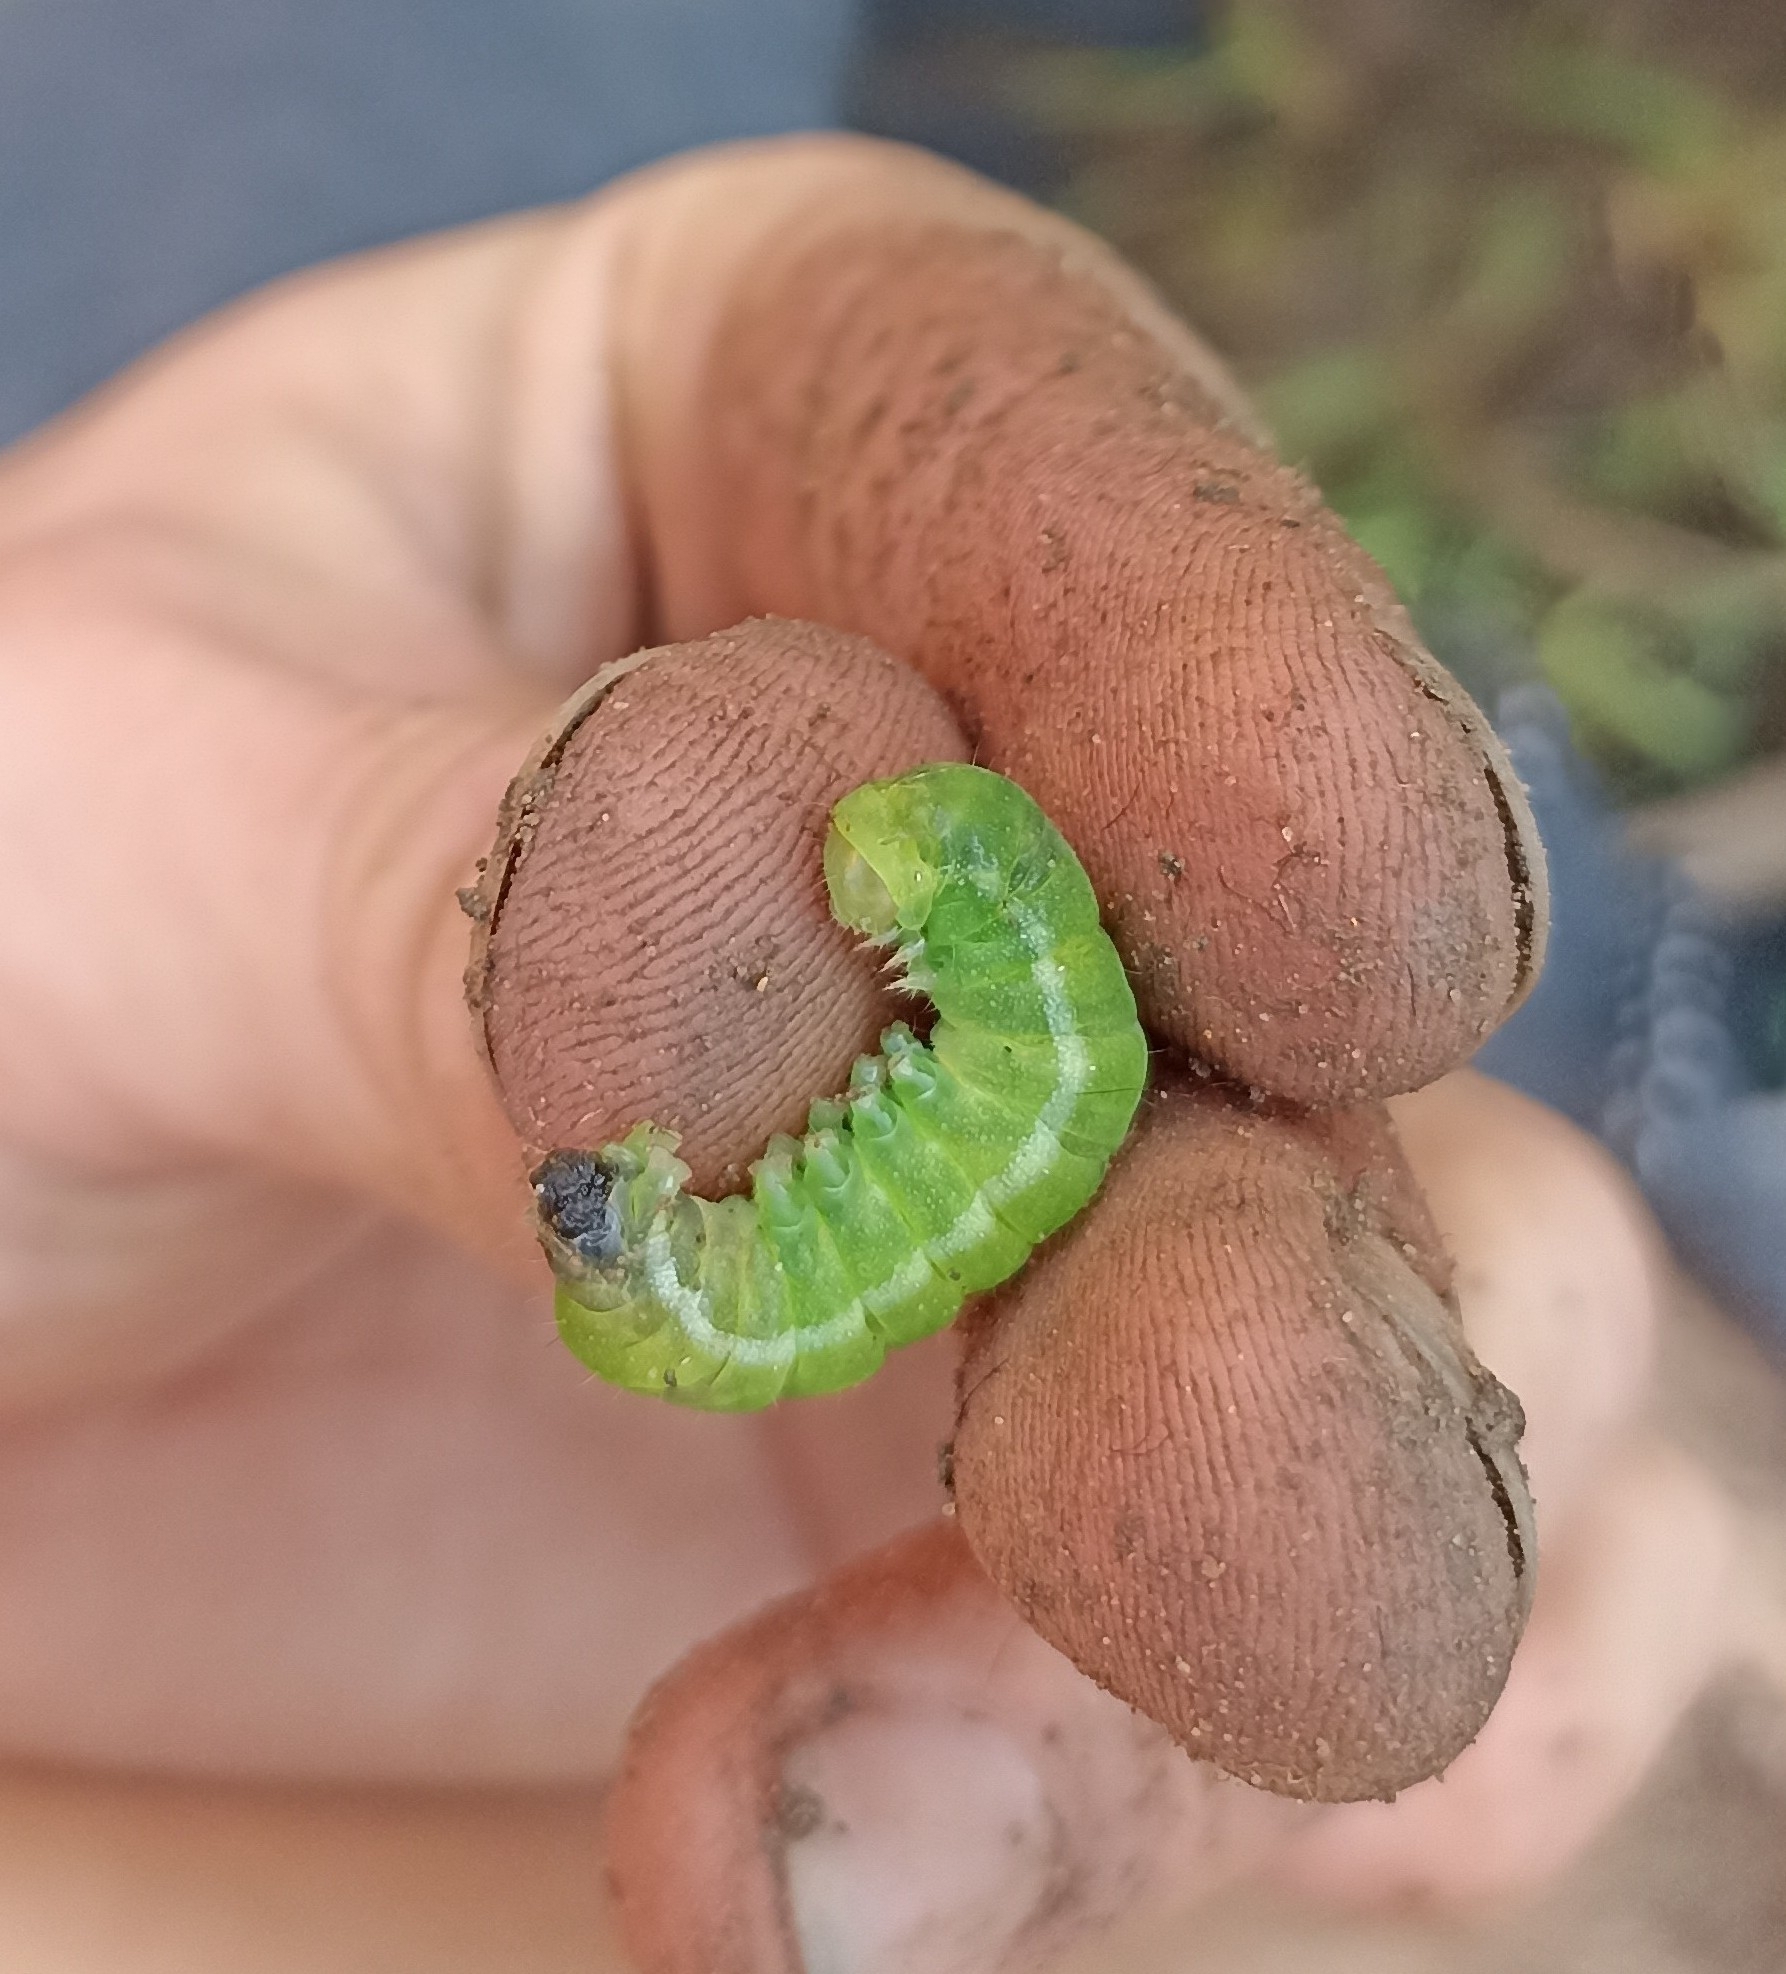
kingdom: Animalia
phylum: Arthropoda
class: Insecta
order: Lepidoptera
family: Noctuidae
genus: Phlogophora
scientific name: Phlogophora meticulosa
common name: Angle shades
